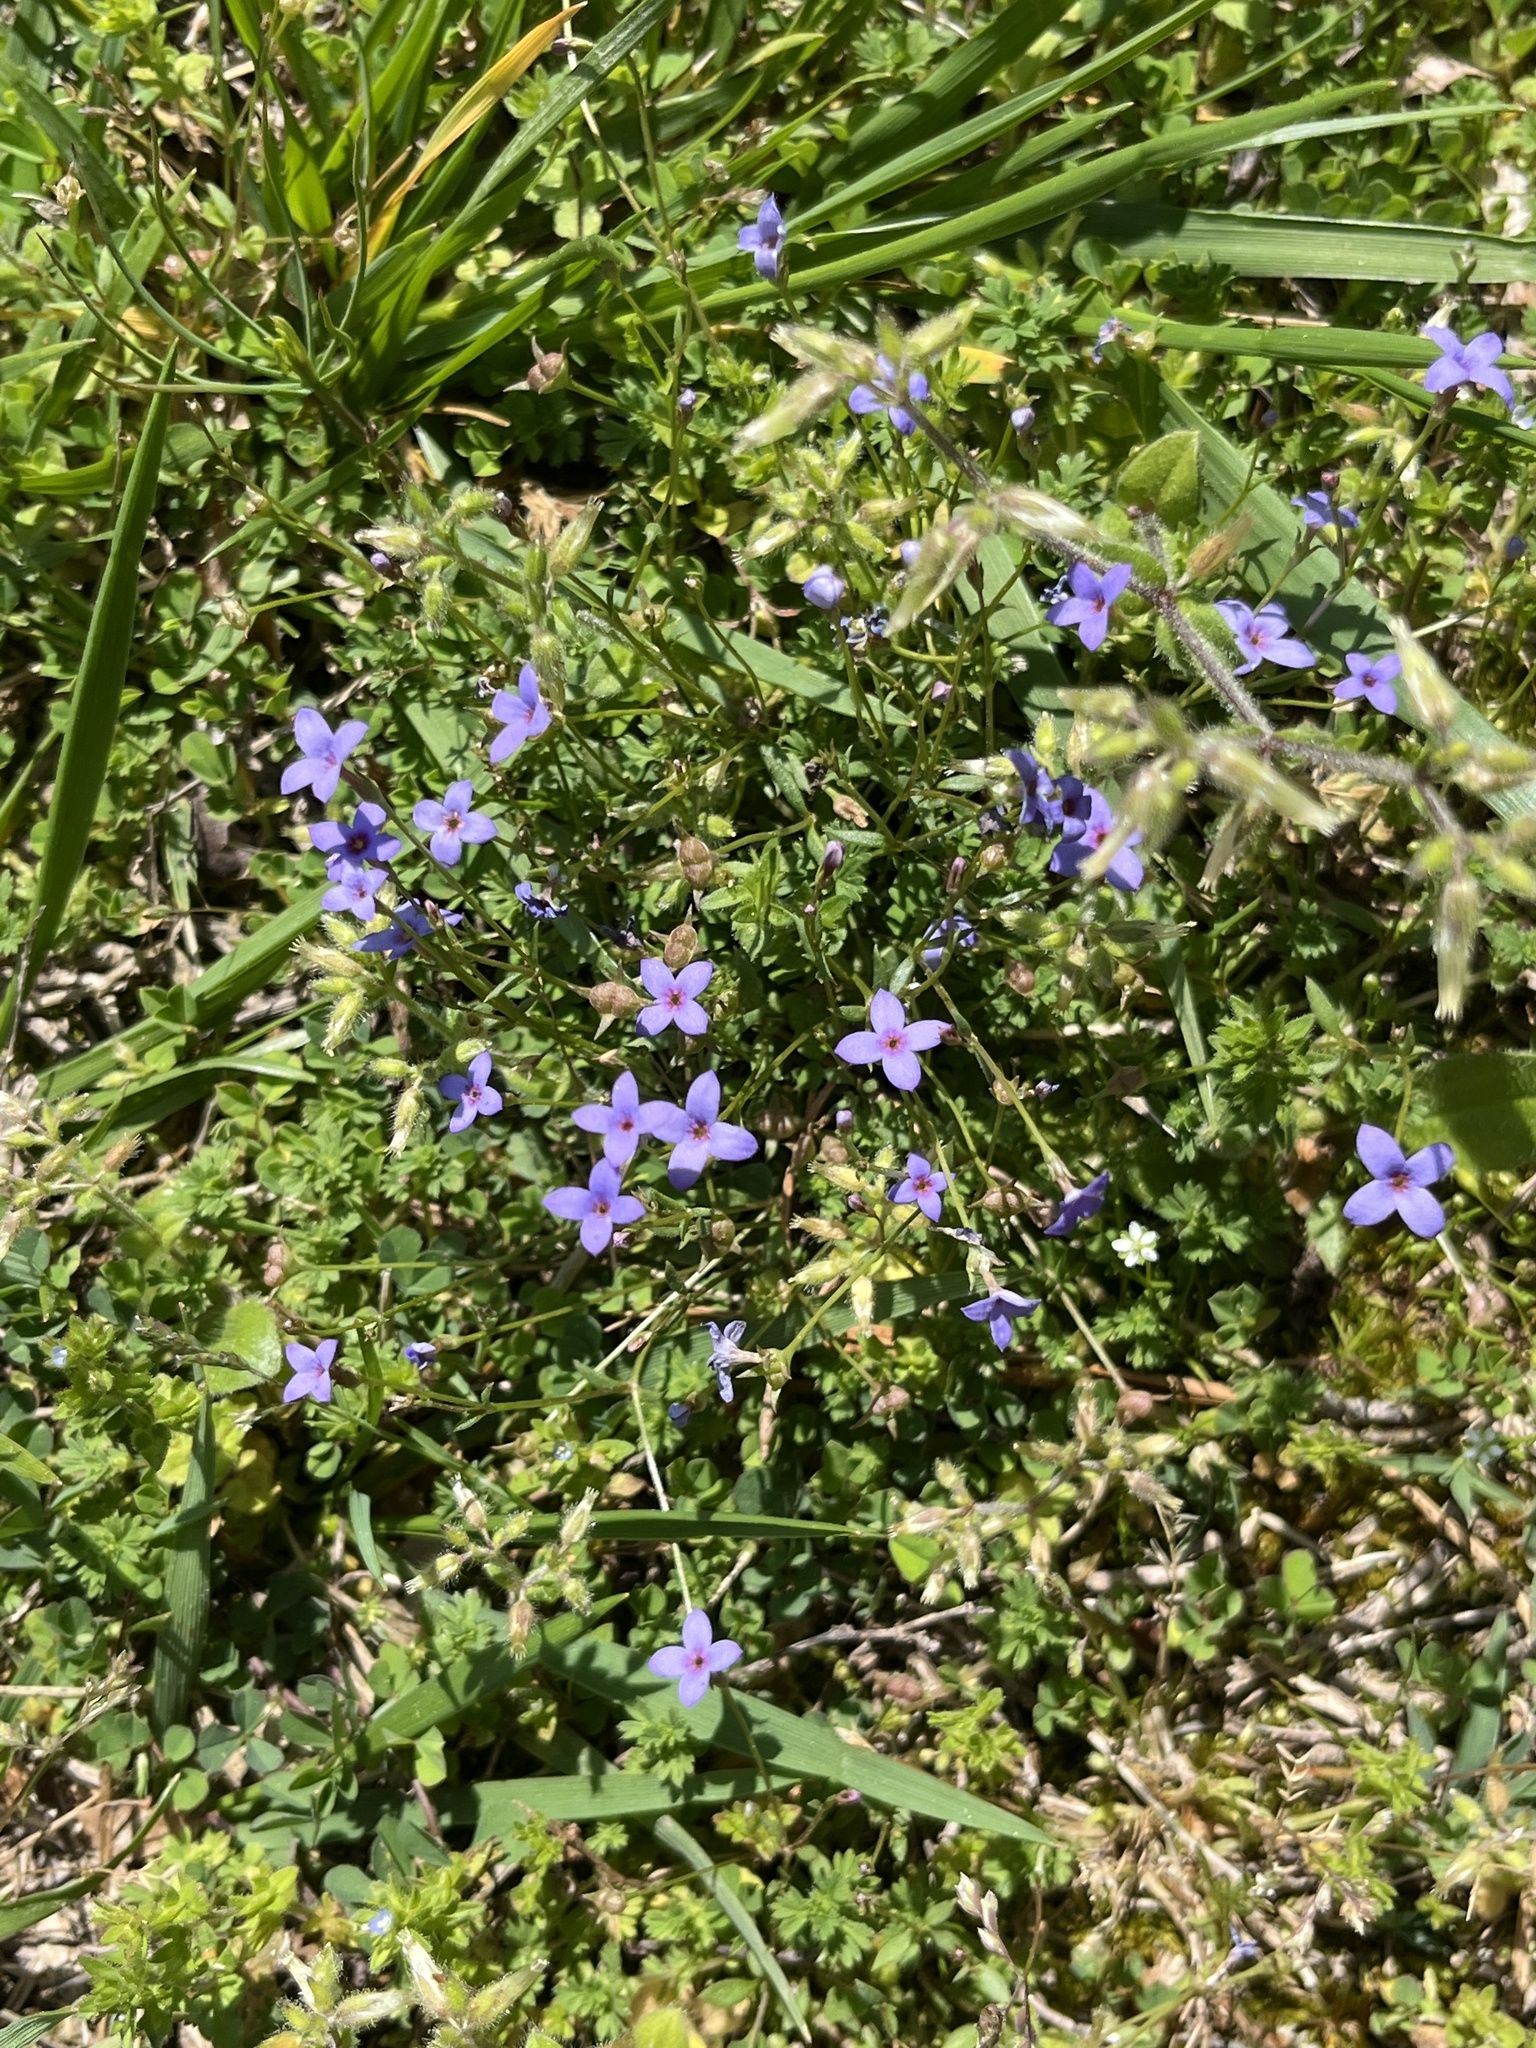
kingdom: Plantae
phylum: Tracheophyta
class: Magnoliopsida
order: Gentianales
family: Rubiaceae
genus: Houstonia
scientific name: Houstonia pusilla
